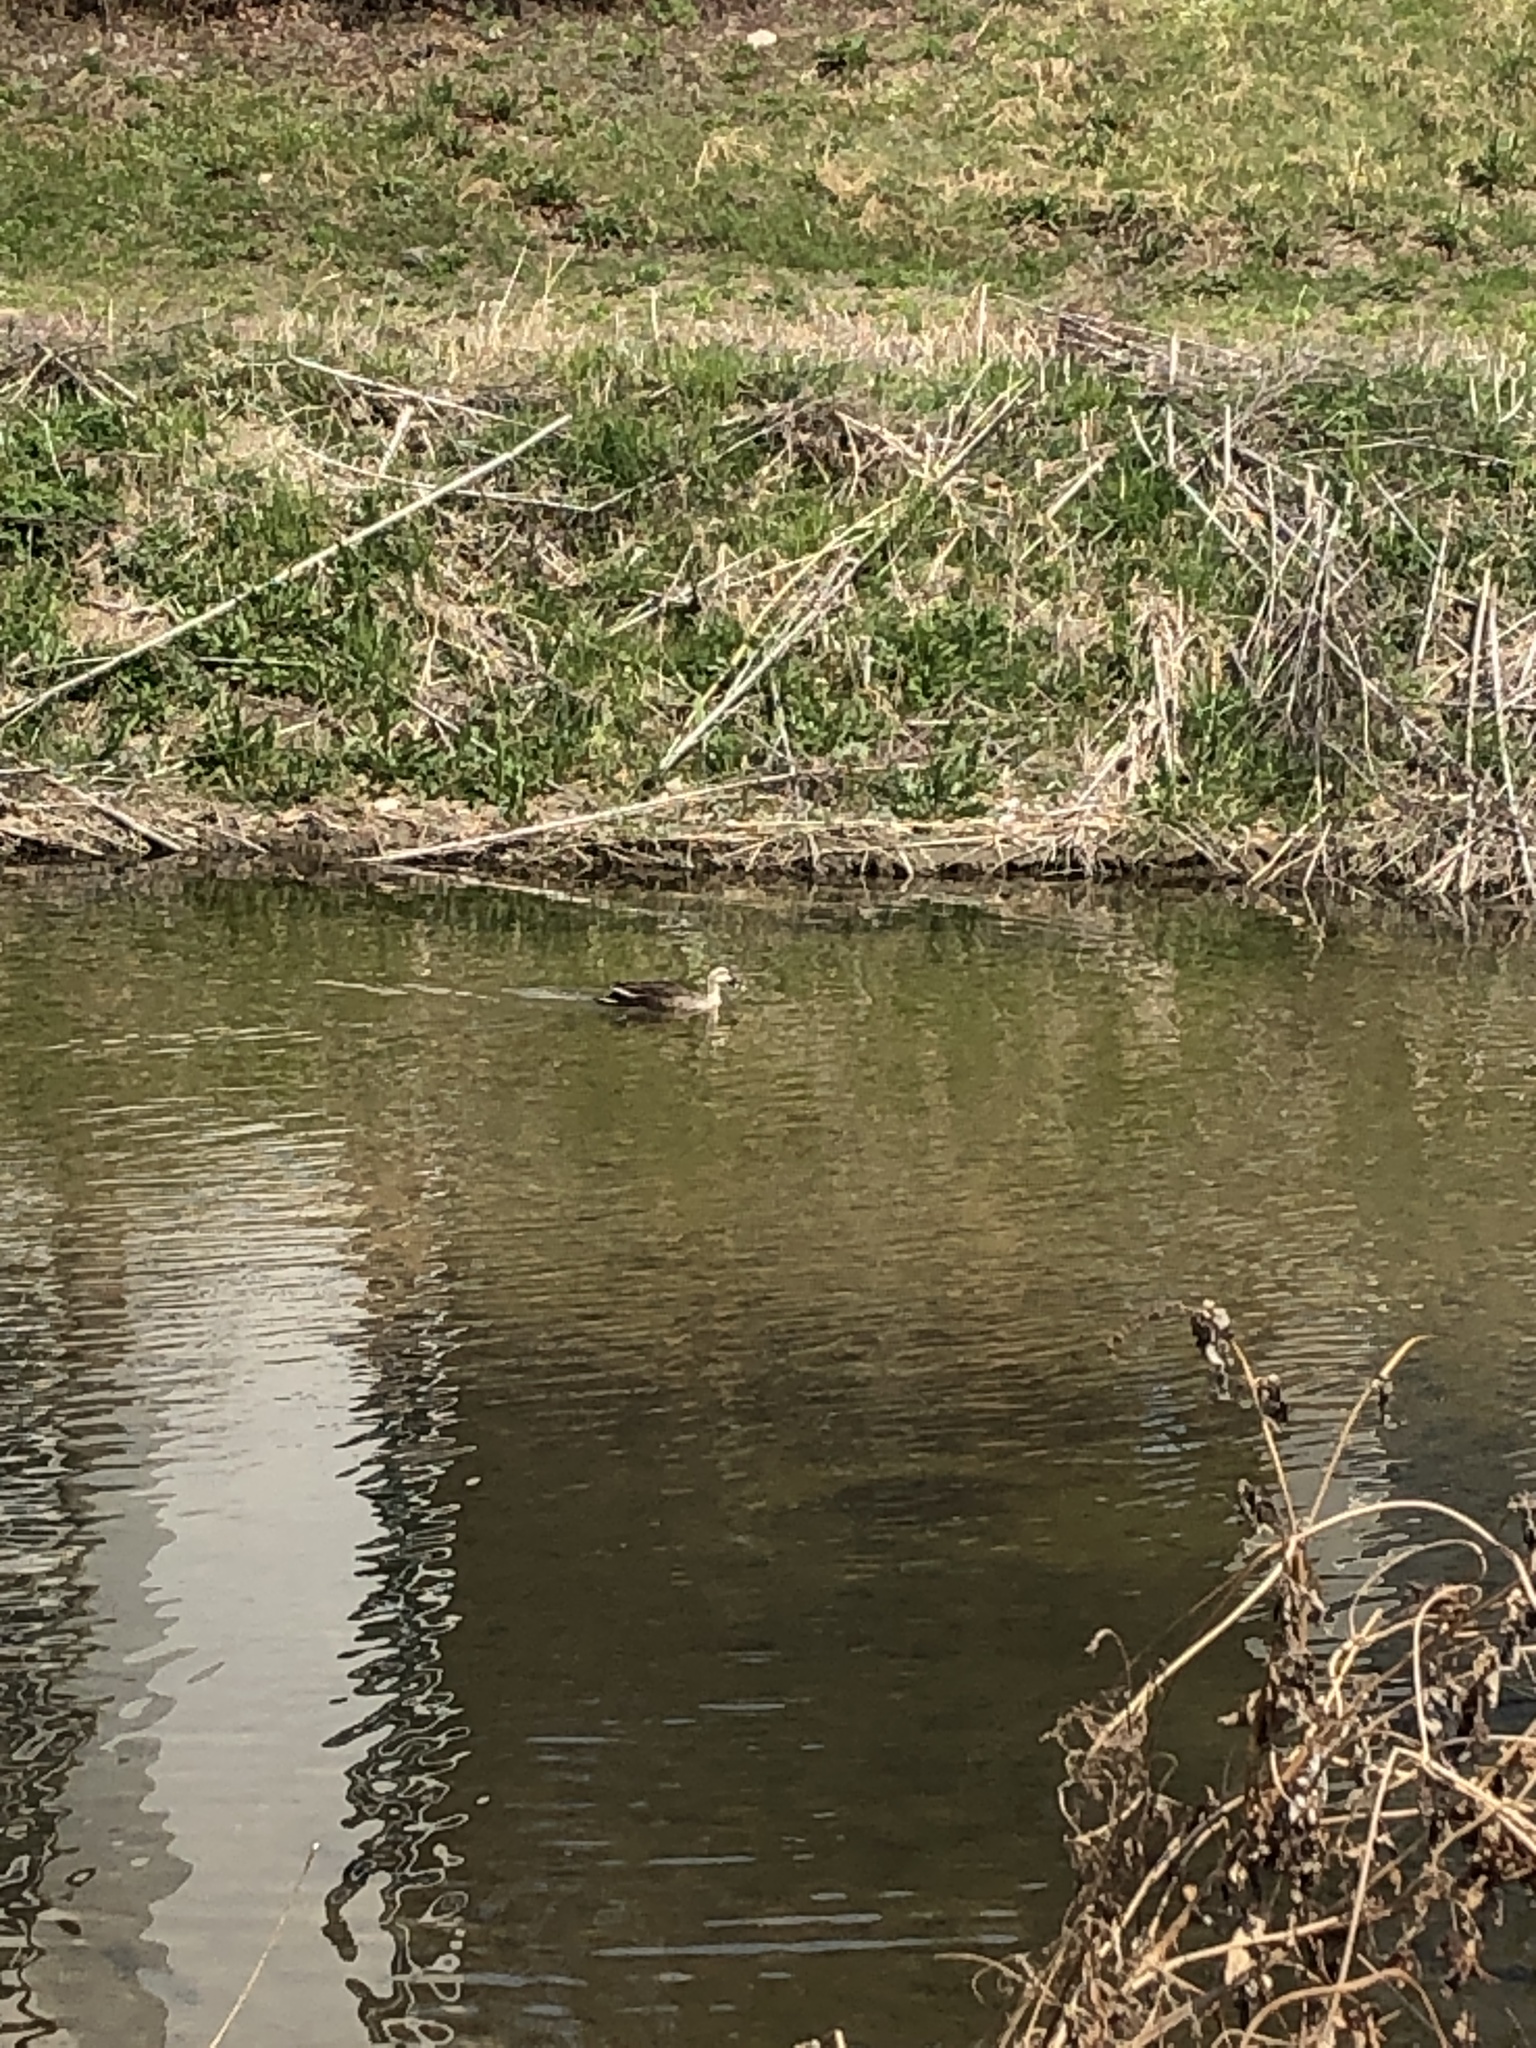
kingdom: Animalia
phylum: Chordata
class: Aves
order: Anseriformes
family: Anatidae
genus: Anas
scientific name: Anas zonorhyncha
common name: Eastern spot-billed duck
